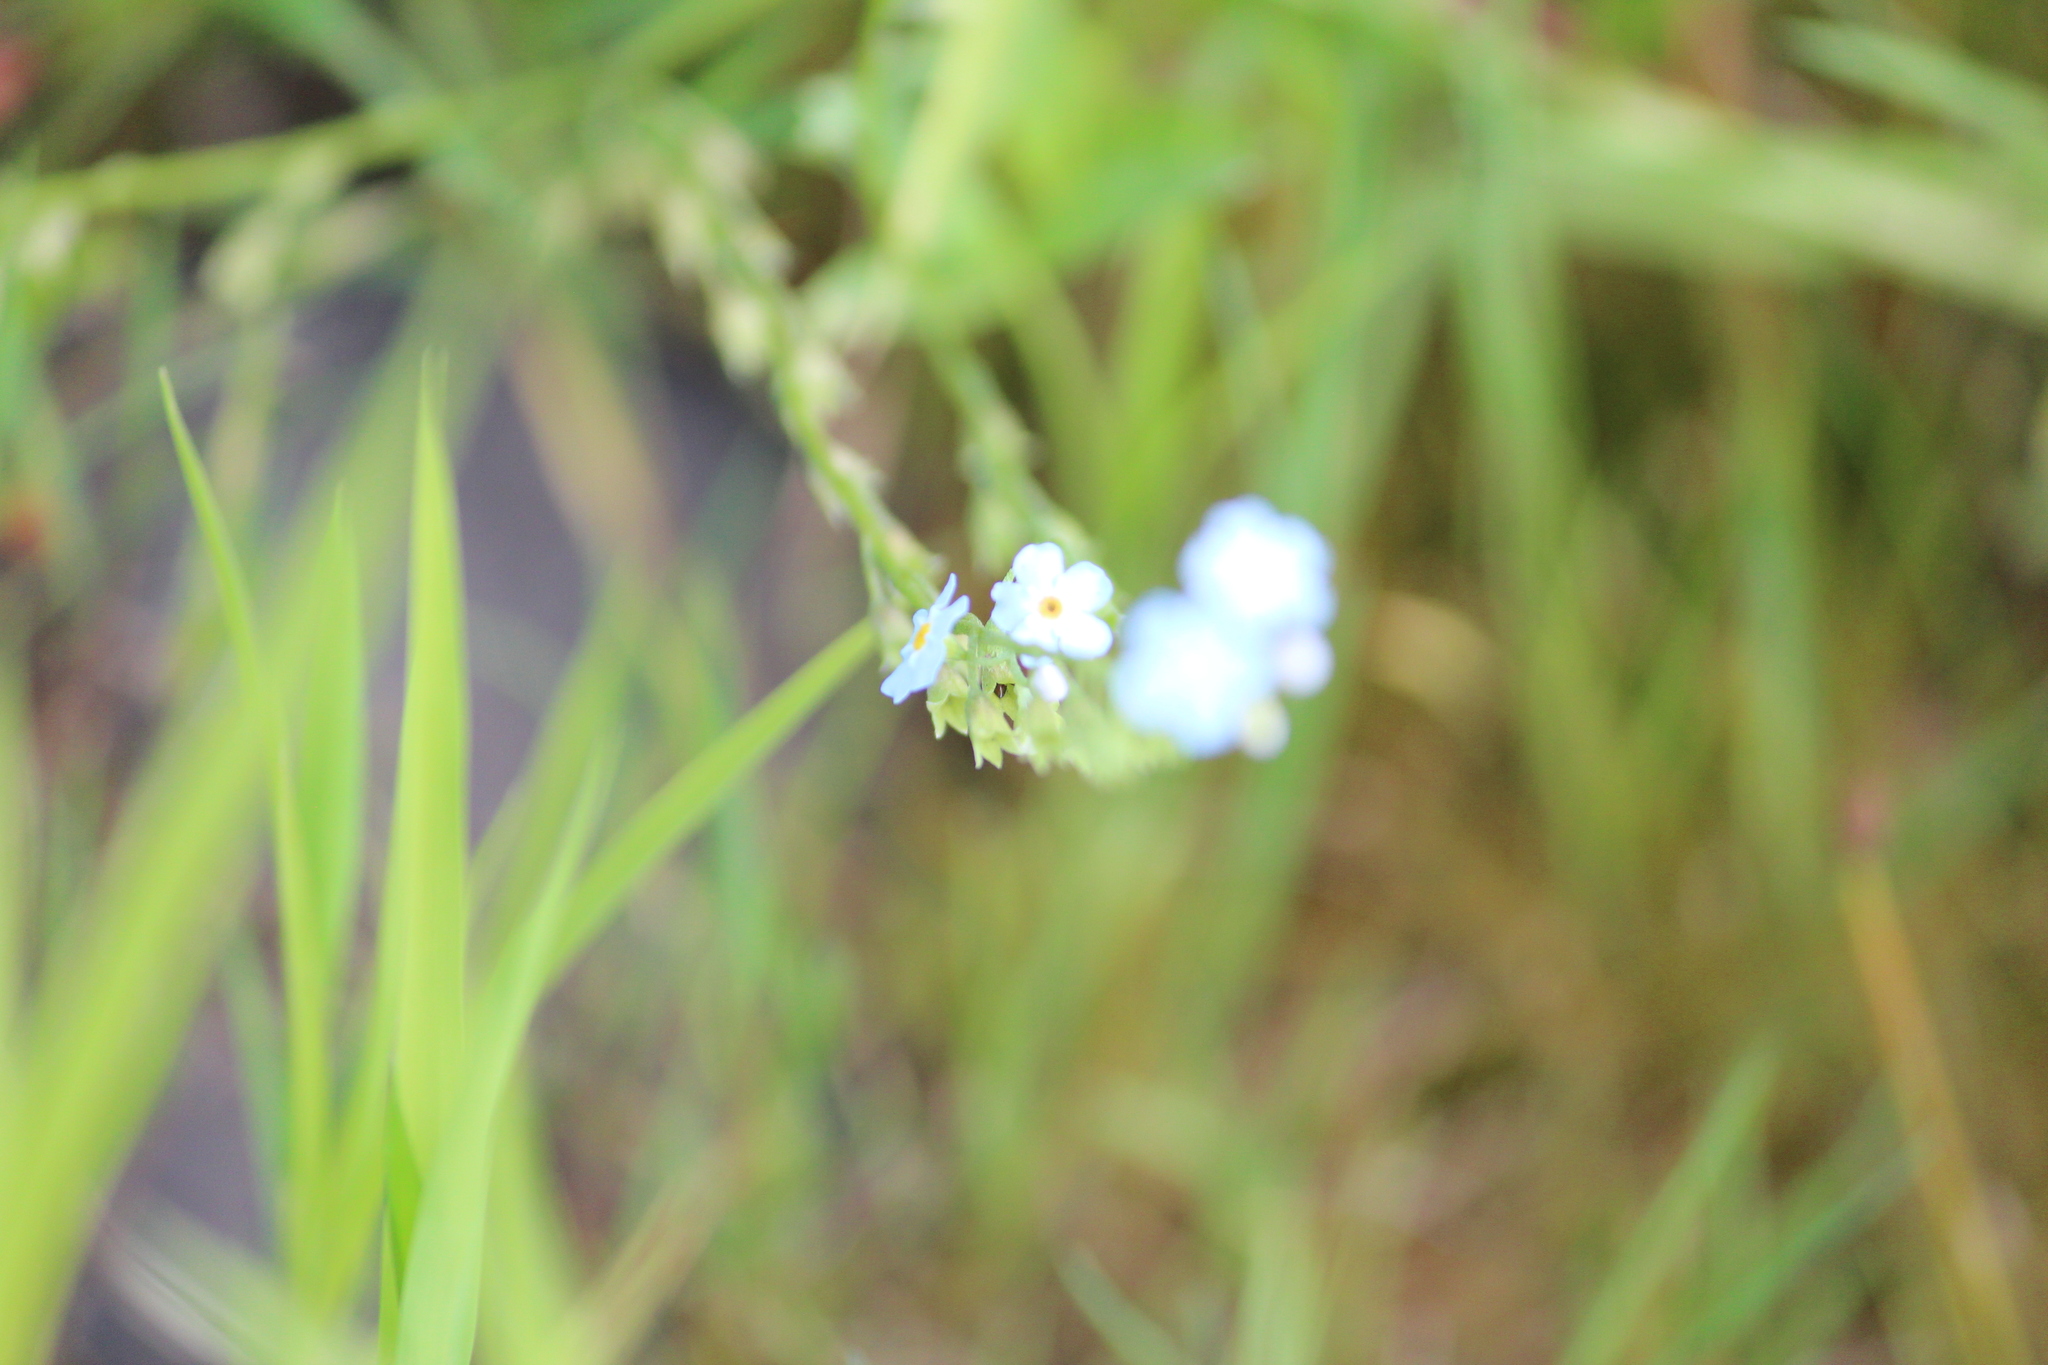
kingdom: Plantae
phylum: Tracheophyta
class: Magnoliopsida
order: Boraginales
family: Boraginaceae
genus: Myosotis
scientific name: Myosotis scorpioides
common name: Water forget-me-not
